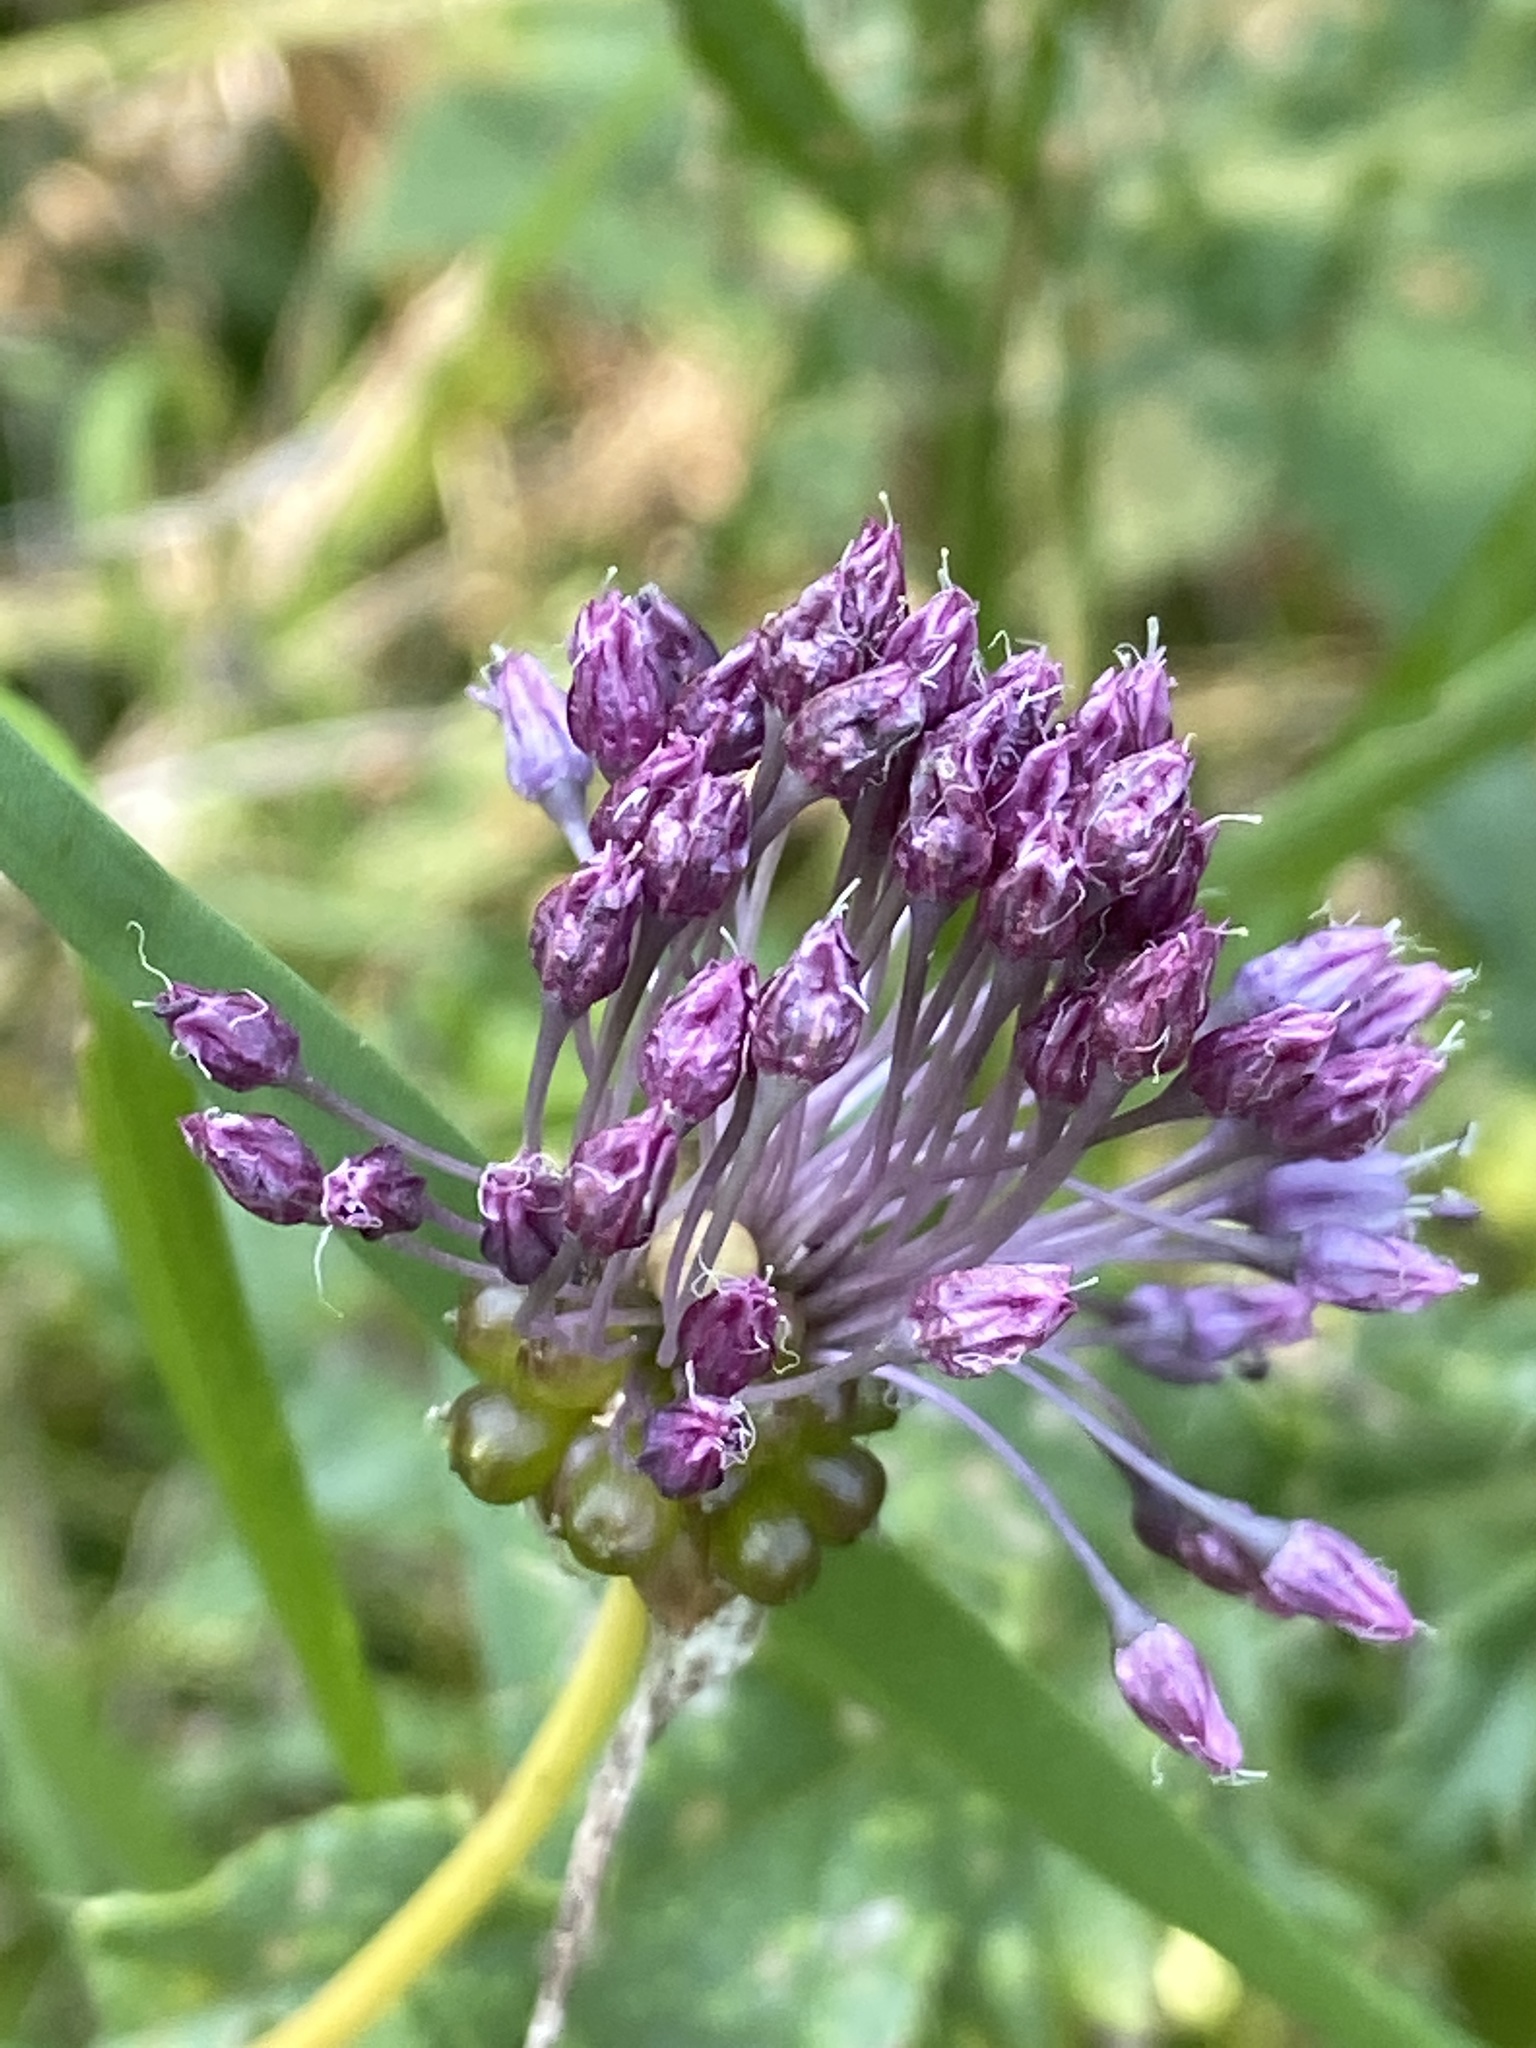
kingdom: Plantae
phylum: Tracheophyta
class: Liliopsida
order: Asparagales
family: Amaryllidaceae
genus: Allium
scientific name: Allium vineale
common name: Crow garlic
